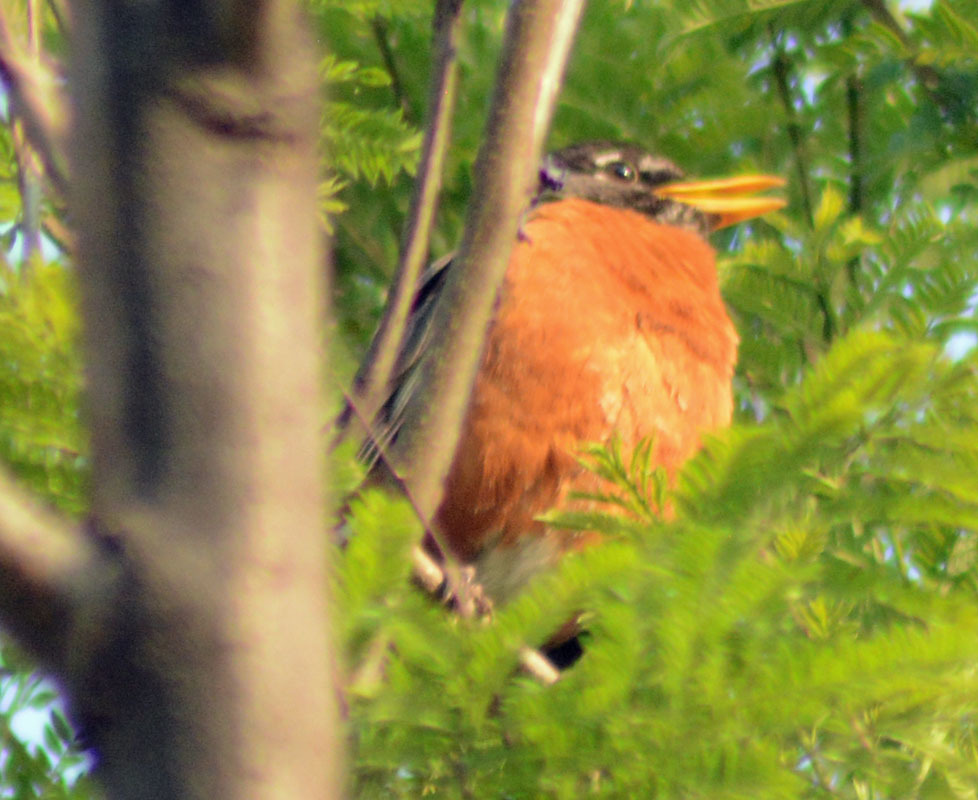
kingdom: Animalia
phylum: Chordata
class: Aves
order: Passeriformes
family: Turdidae
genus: Turdus
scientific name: Turdus migratorius
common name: American robin
